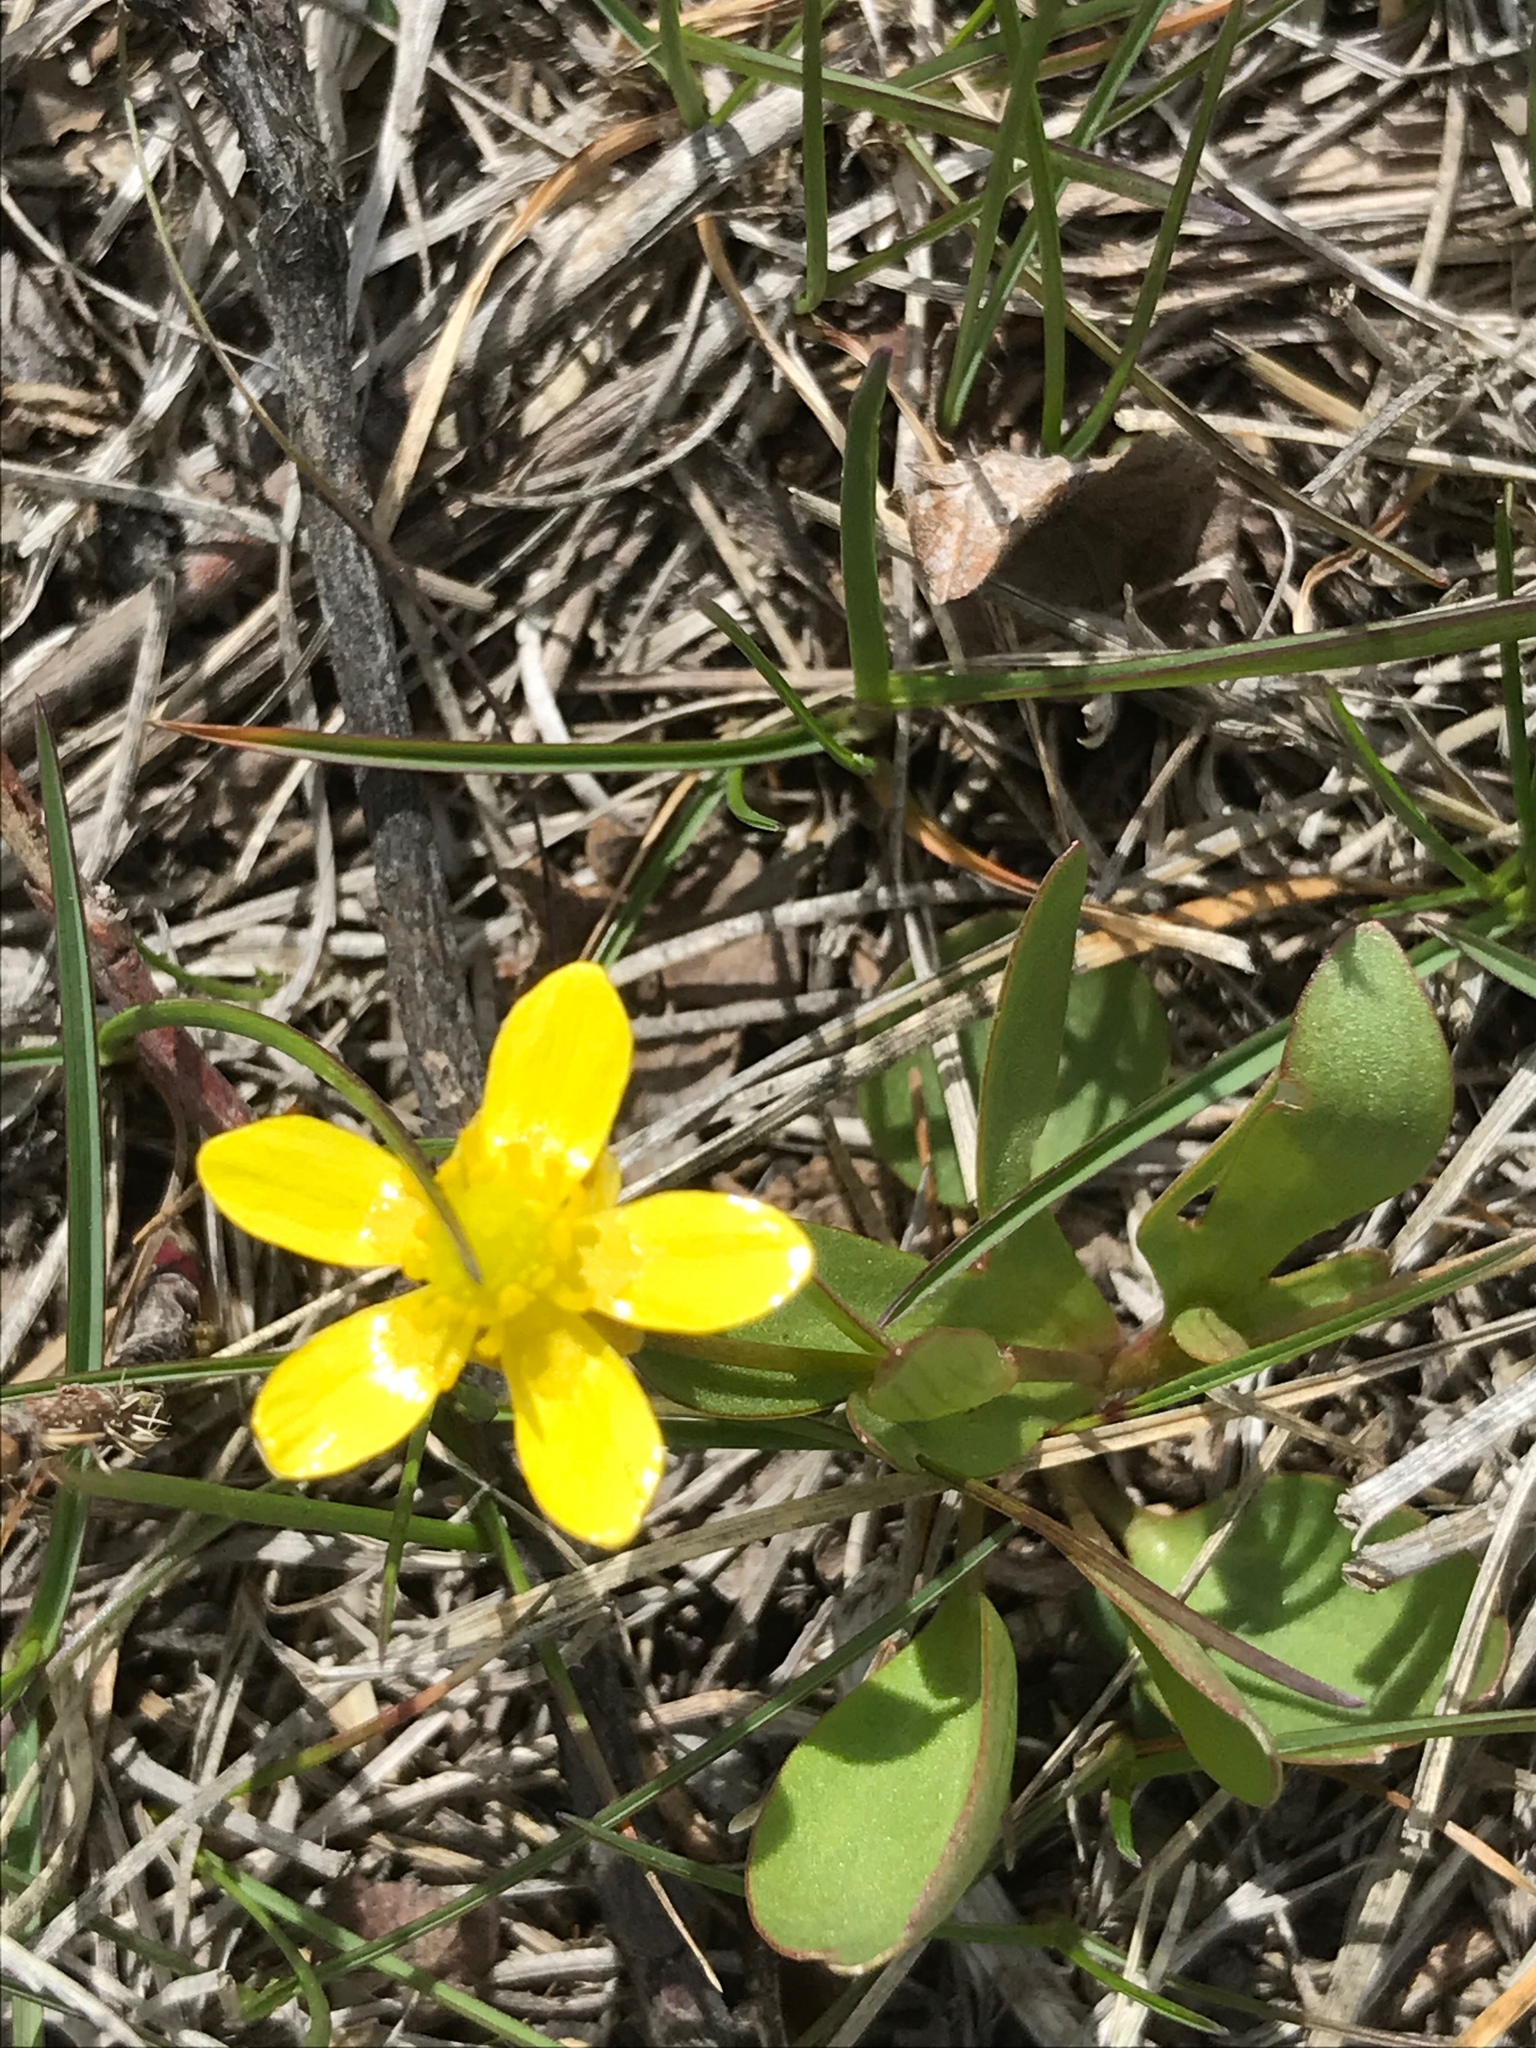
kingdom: Plantae
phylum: Tracheophyta
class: Magnoliopsida
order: Ranunculales
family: Ranunculaceae
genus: Ranunculus
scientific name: Ranunculus glaberrimus
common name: Sagebrush buttercup
